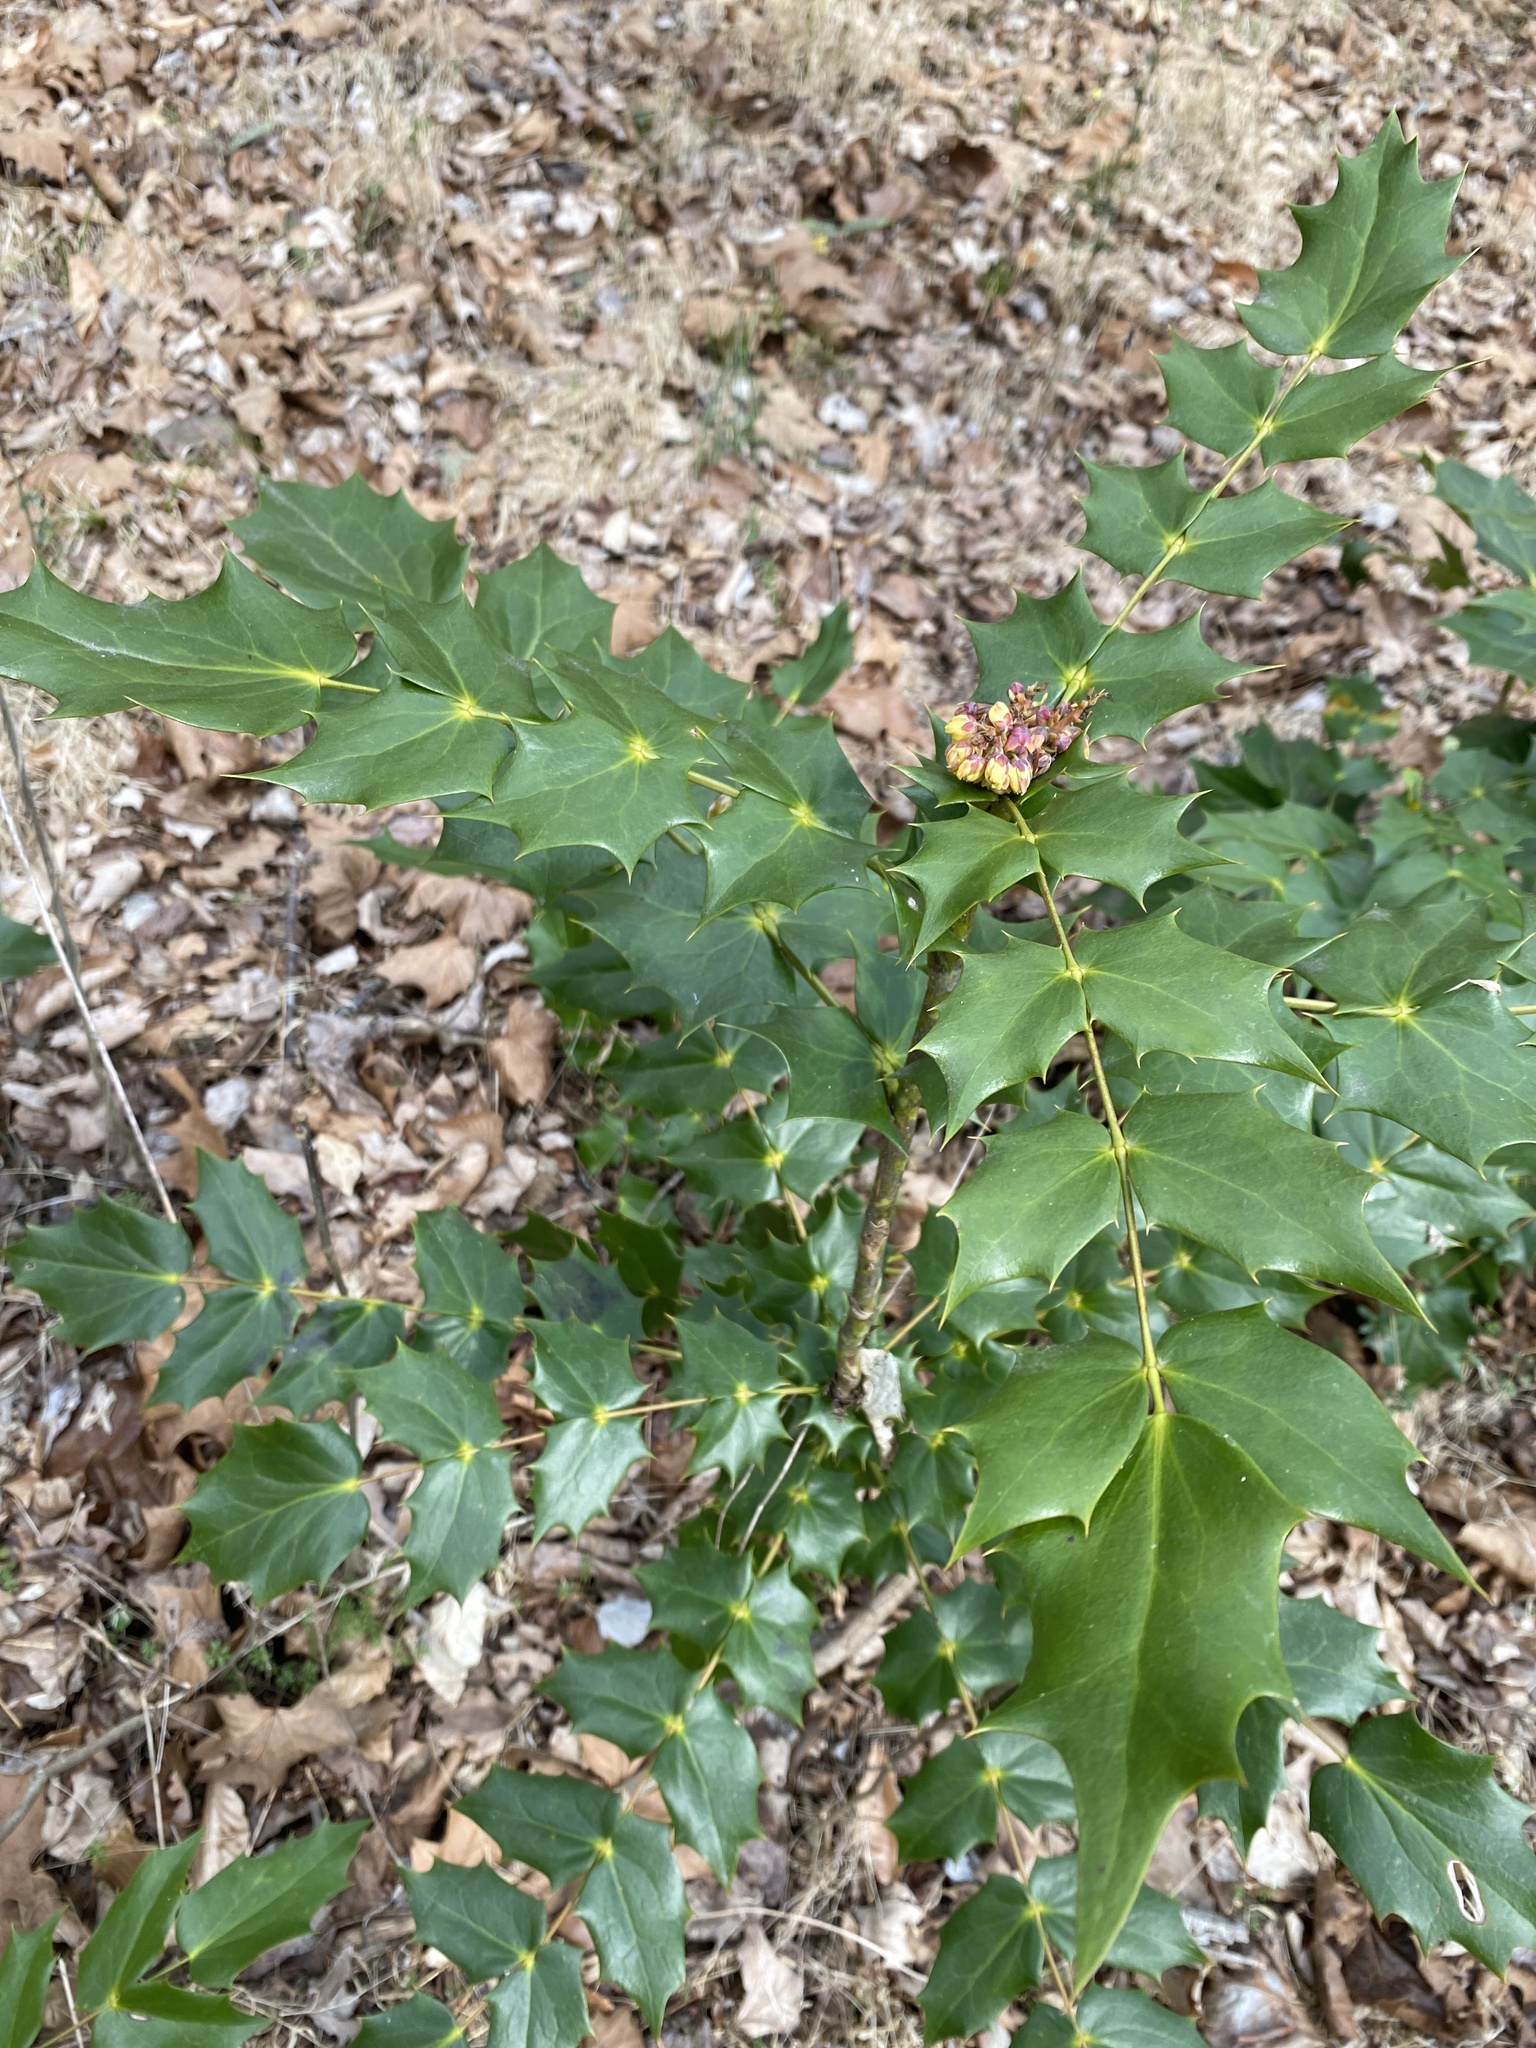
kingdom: Plantae
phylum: Tracheophyta
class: Magnoliopsida
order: Ranunculales
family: Berberidaceae
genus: Mahonia
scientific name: Mahonia bealei
